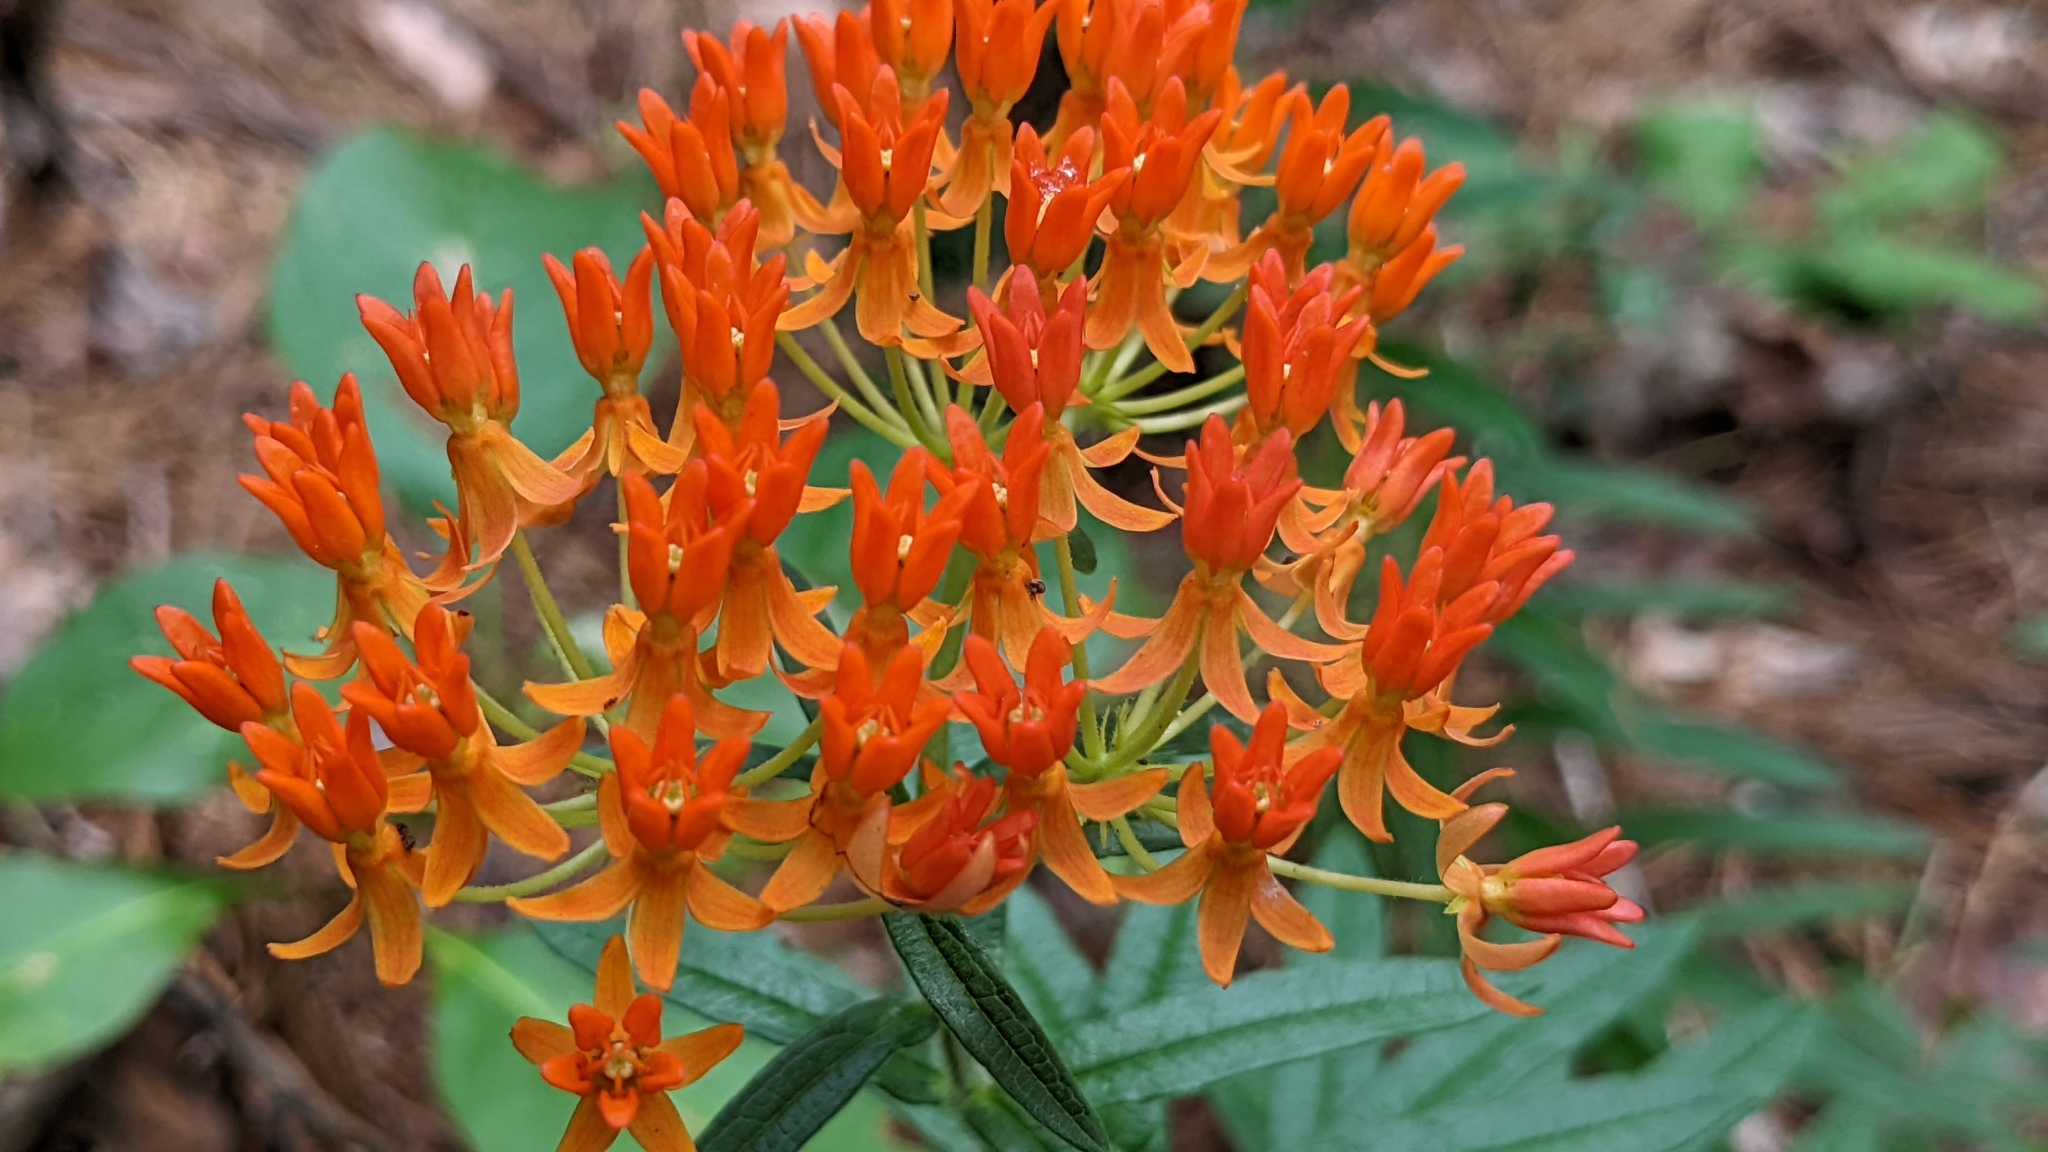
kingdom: Plantae
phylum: Tracheophyta
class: Magnoliopsida
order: Gentianales
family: Apocynaceae
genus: Asclepias
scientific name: Asclepias tuberosa
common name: Butterfly milkweed
